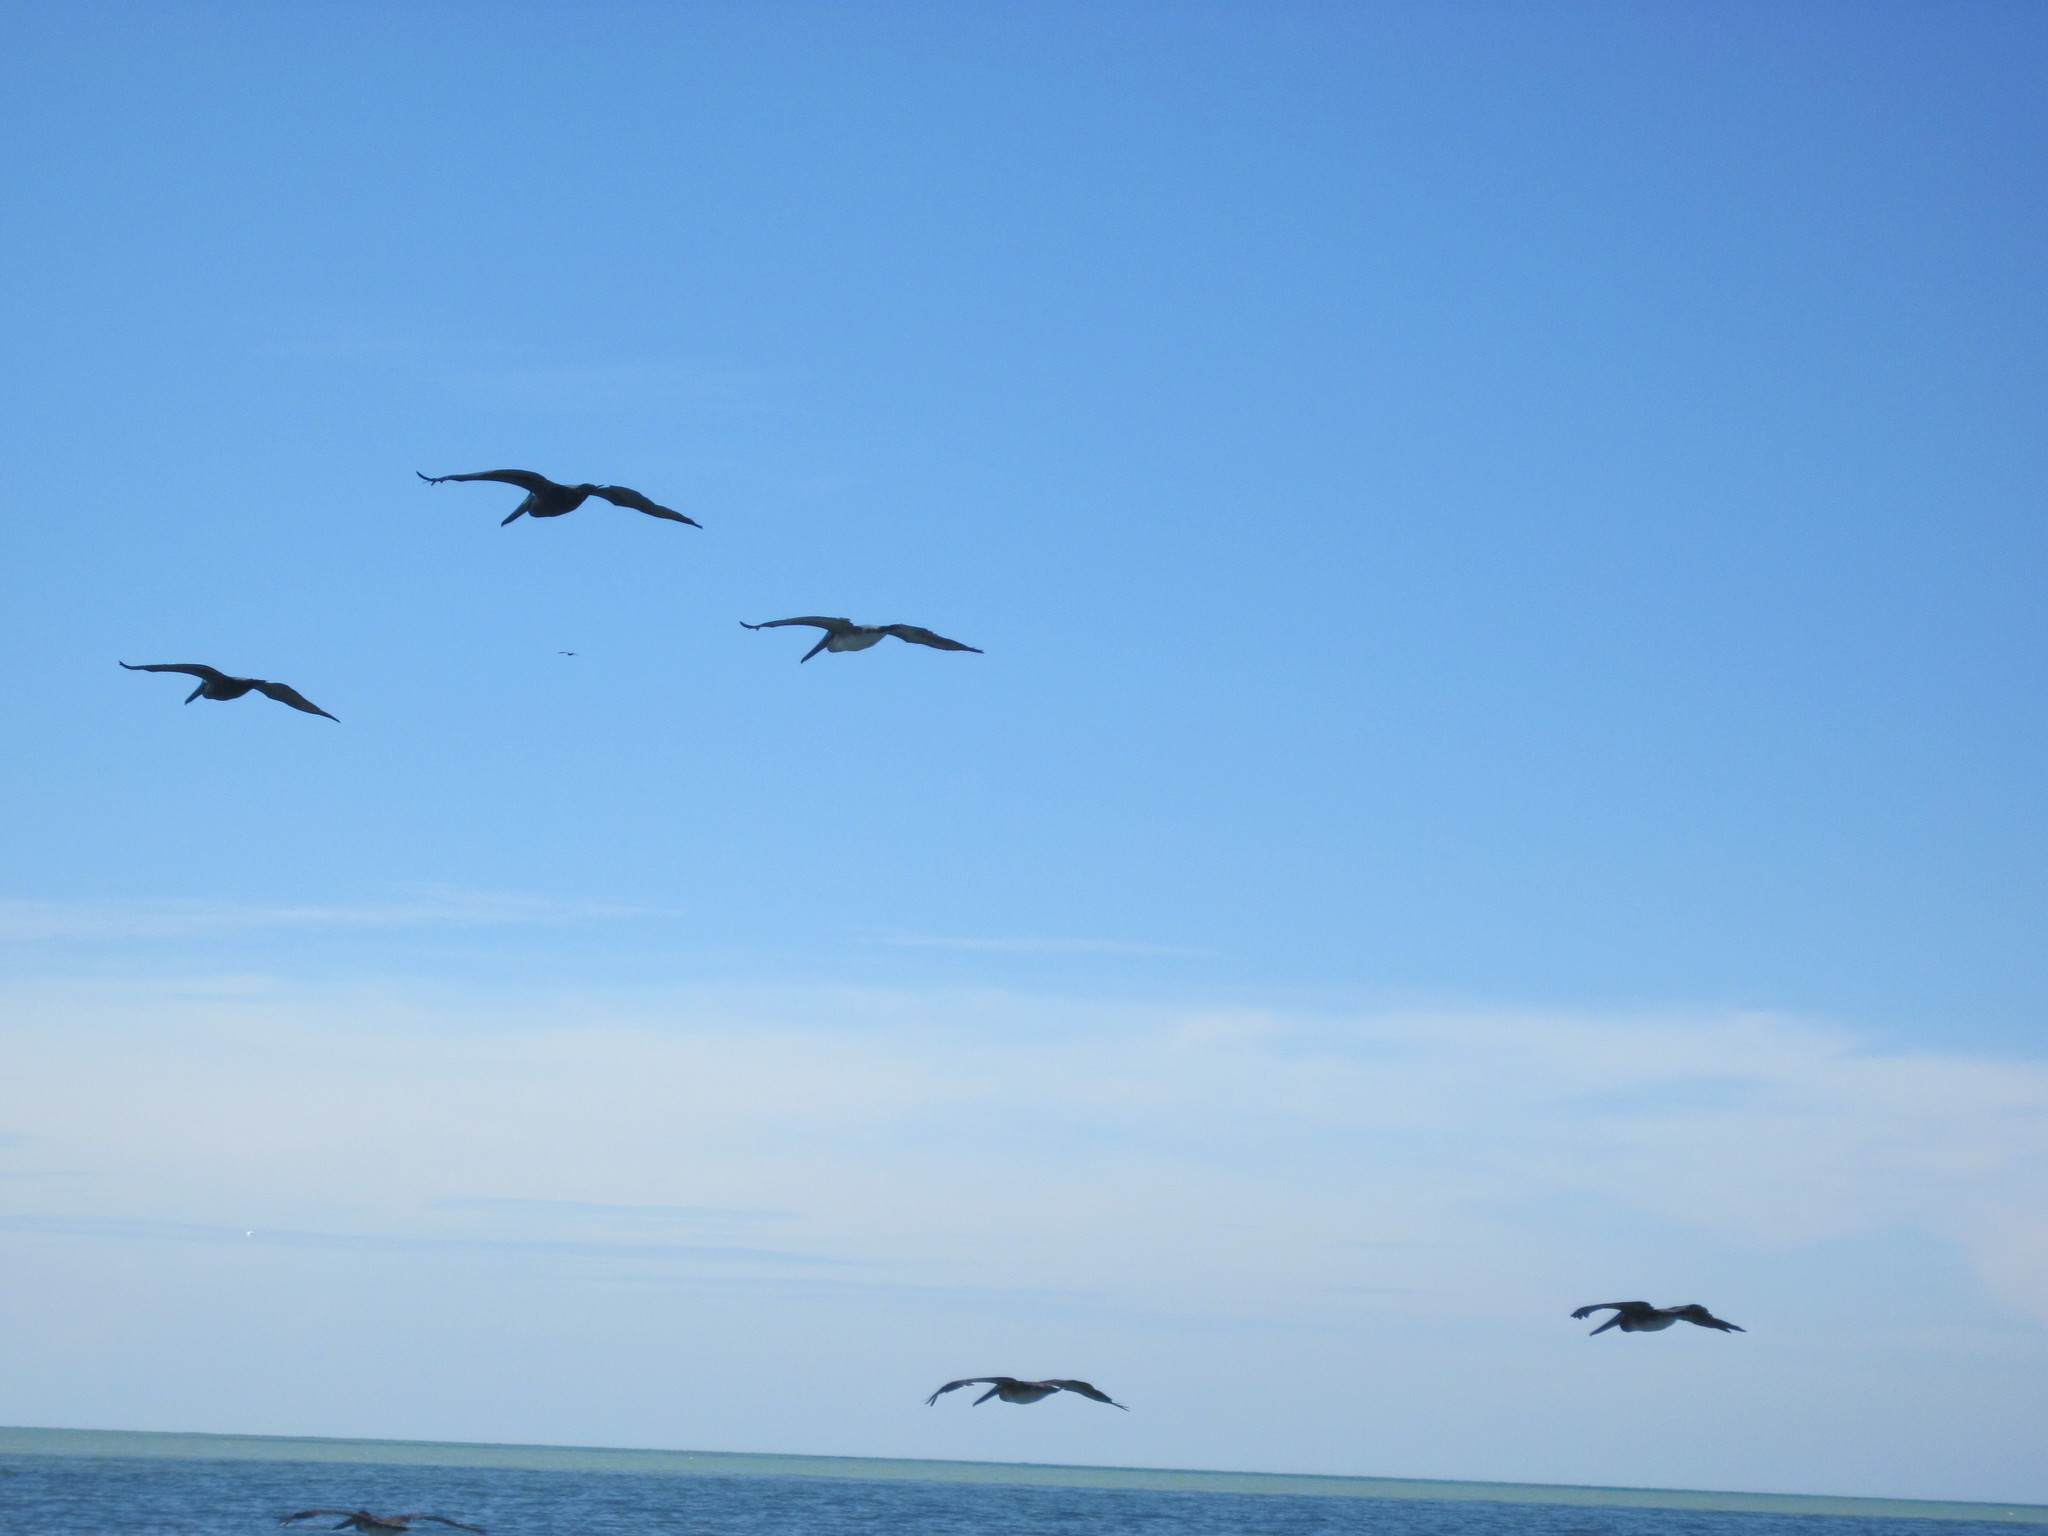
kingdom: Animalia
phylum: Chordata
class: Aves
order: Pelecaniformes
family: Pelecanidae
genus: Pelecanus
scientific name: Pelecanus occidentalis
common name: Brown pelican
